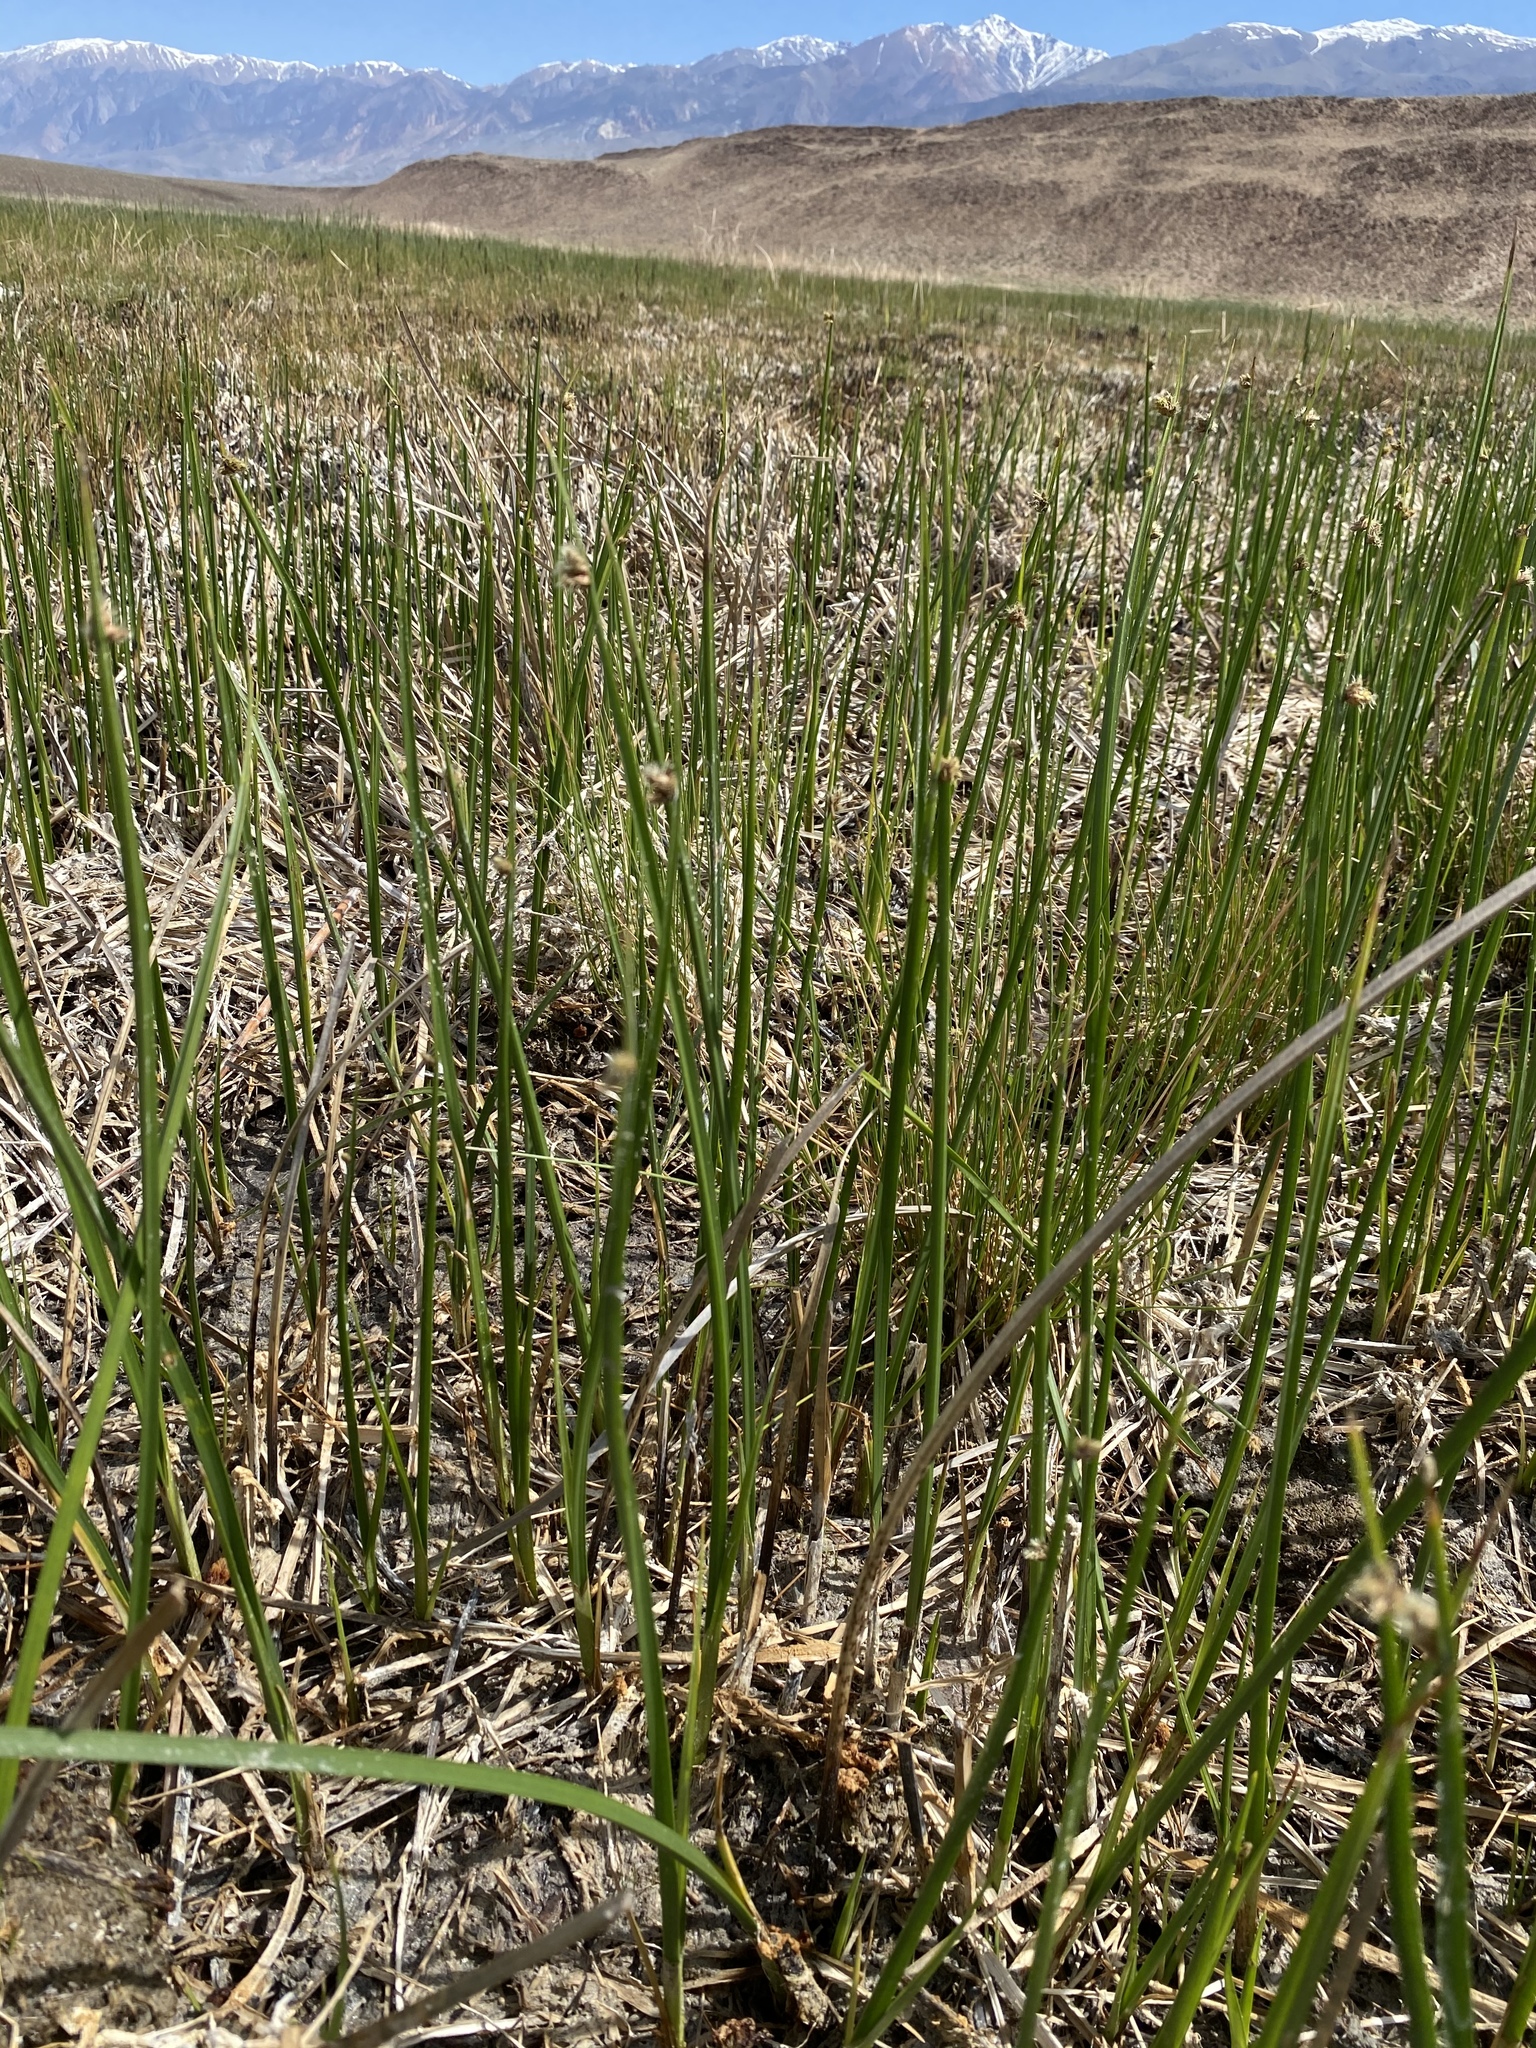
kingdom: Plantae
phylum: Tracheophyta
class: Liliopsida
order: Poales
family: Cyperaceae
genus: Schoenoplectus
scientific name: Schoenoplectus americanus
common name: American three-square bulrush
